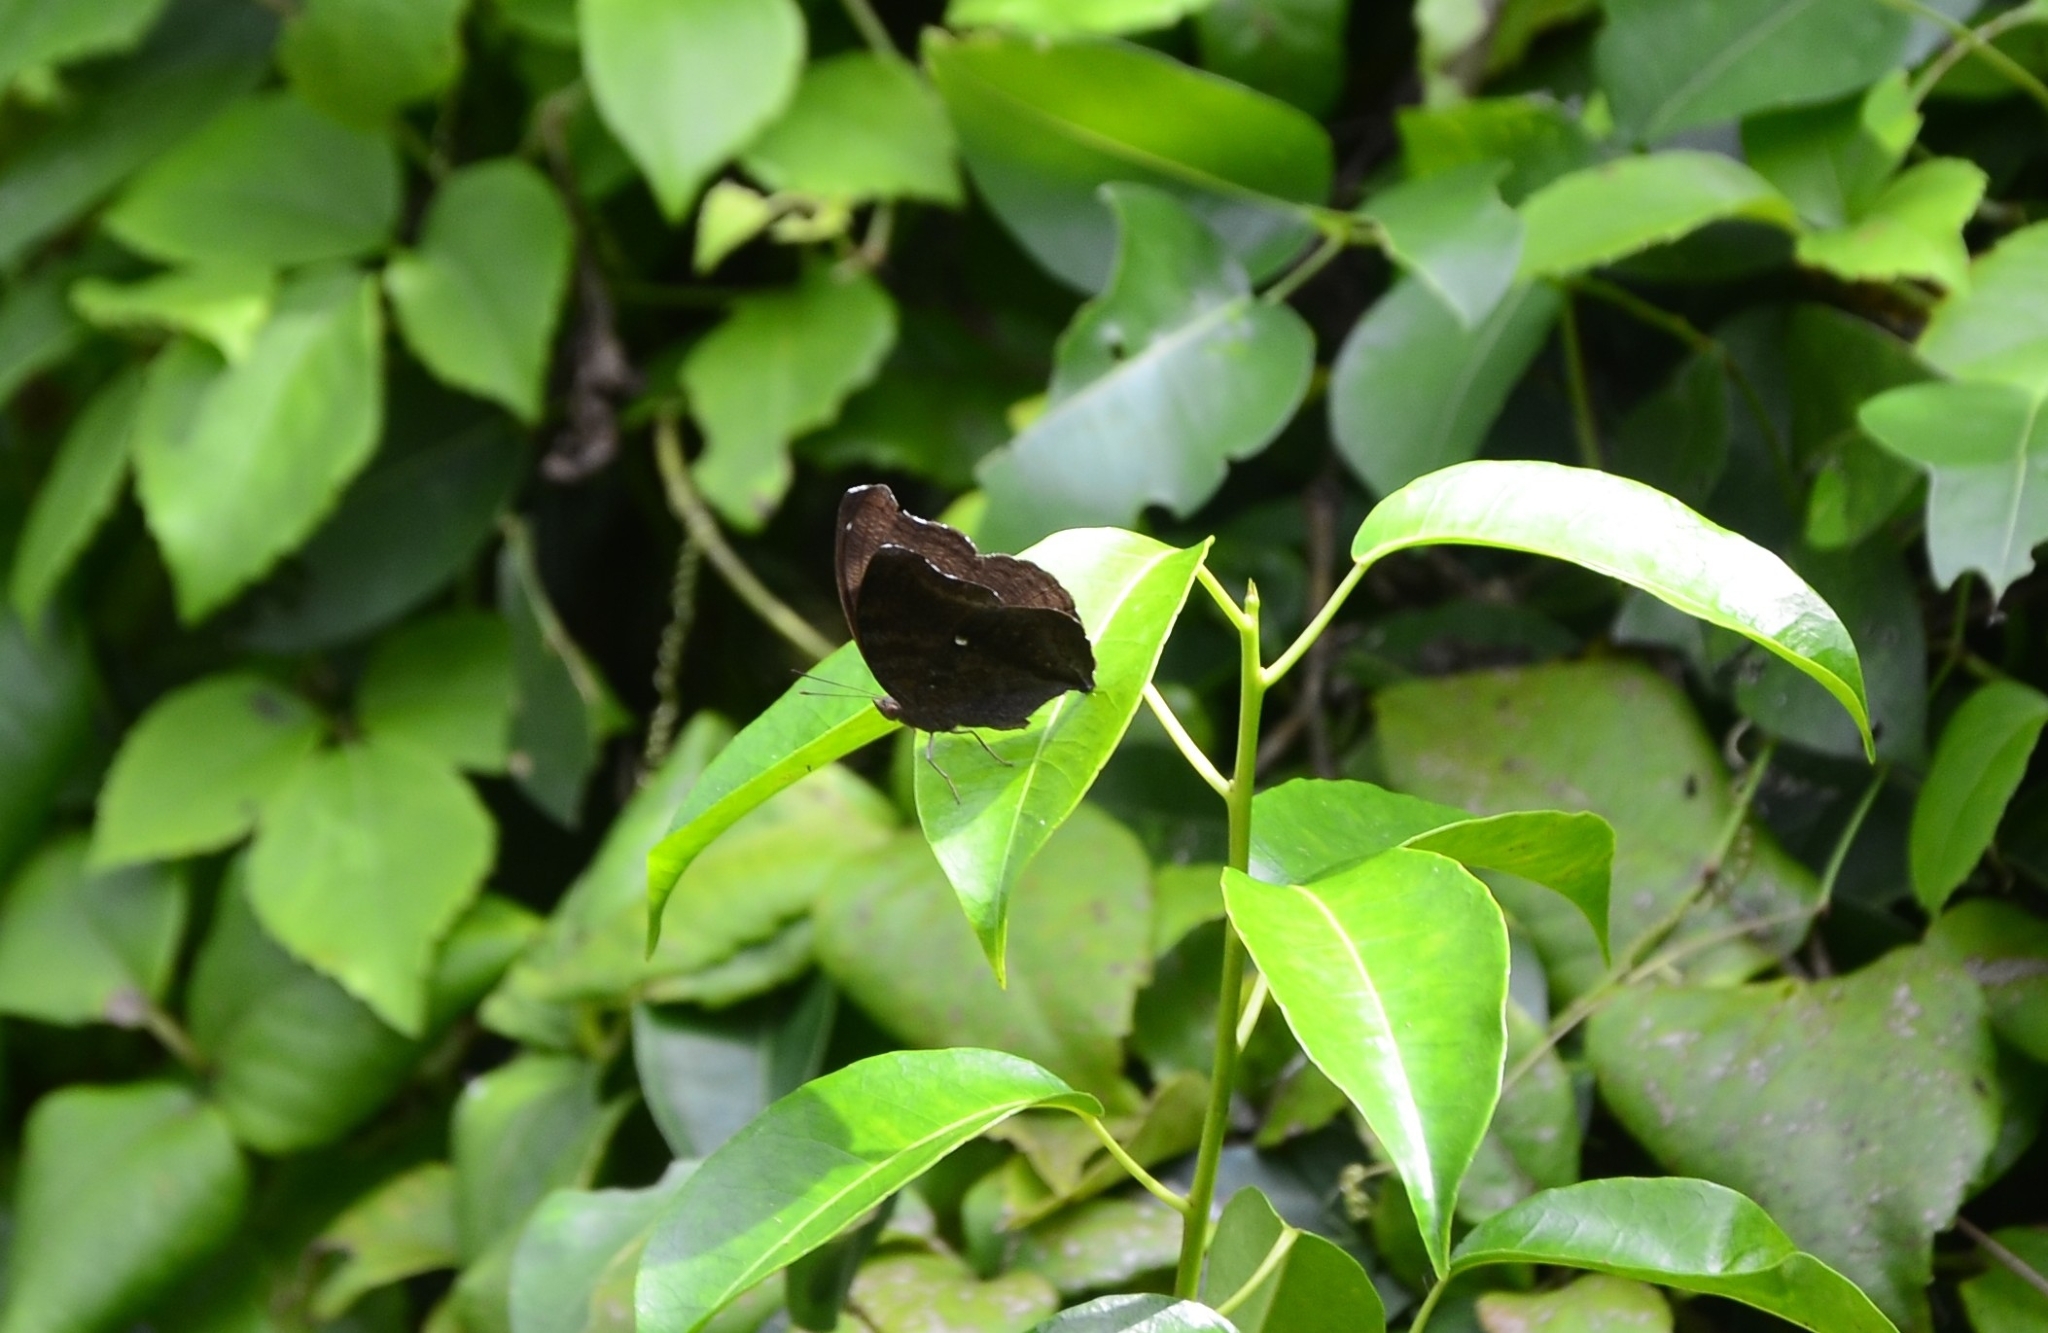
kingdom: Animalia
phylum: Arthropoda
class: Insecta
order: Lepidoptera
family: Nymphalidae
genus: Junonia
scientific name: Junonia iphita
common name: Chocolate pansy
